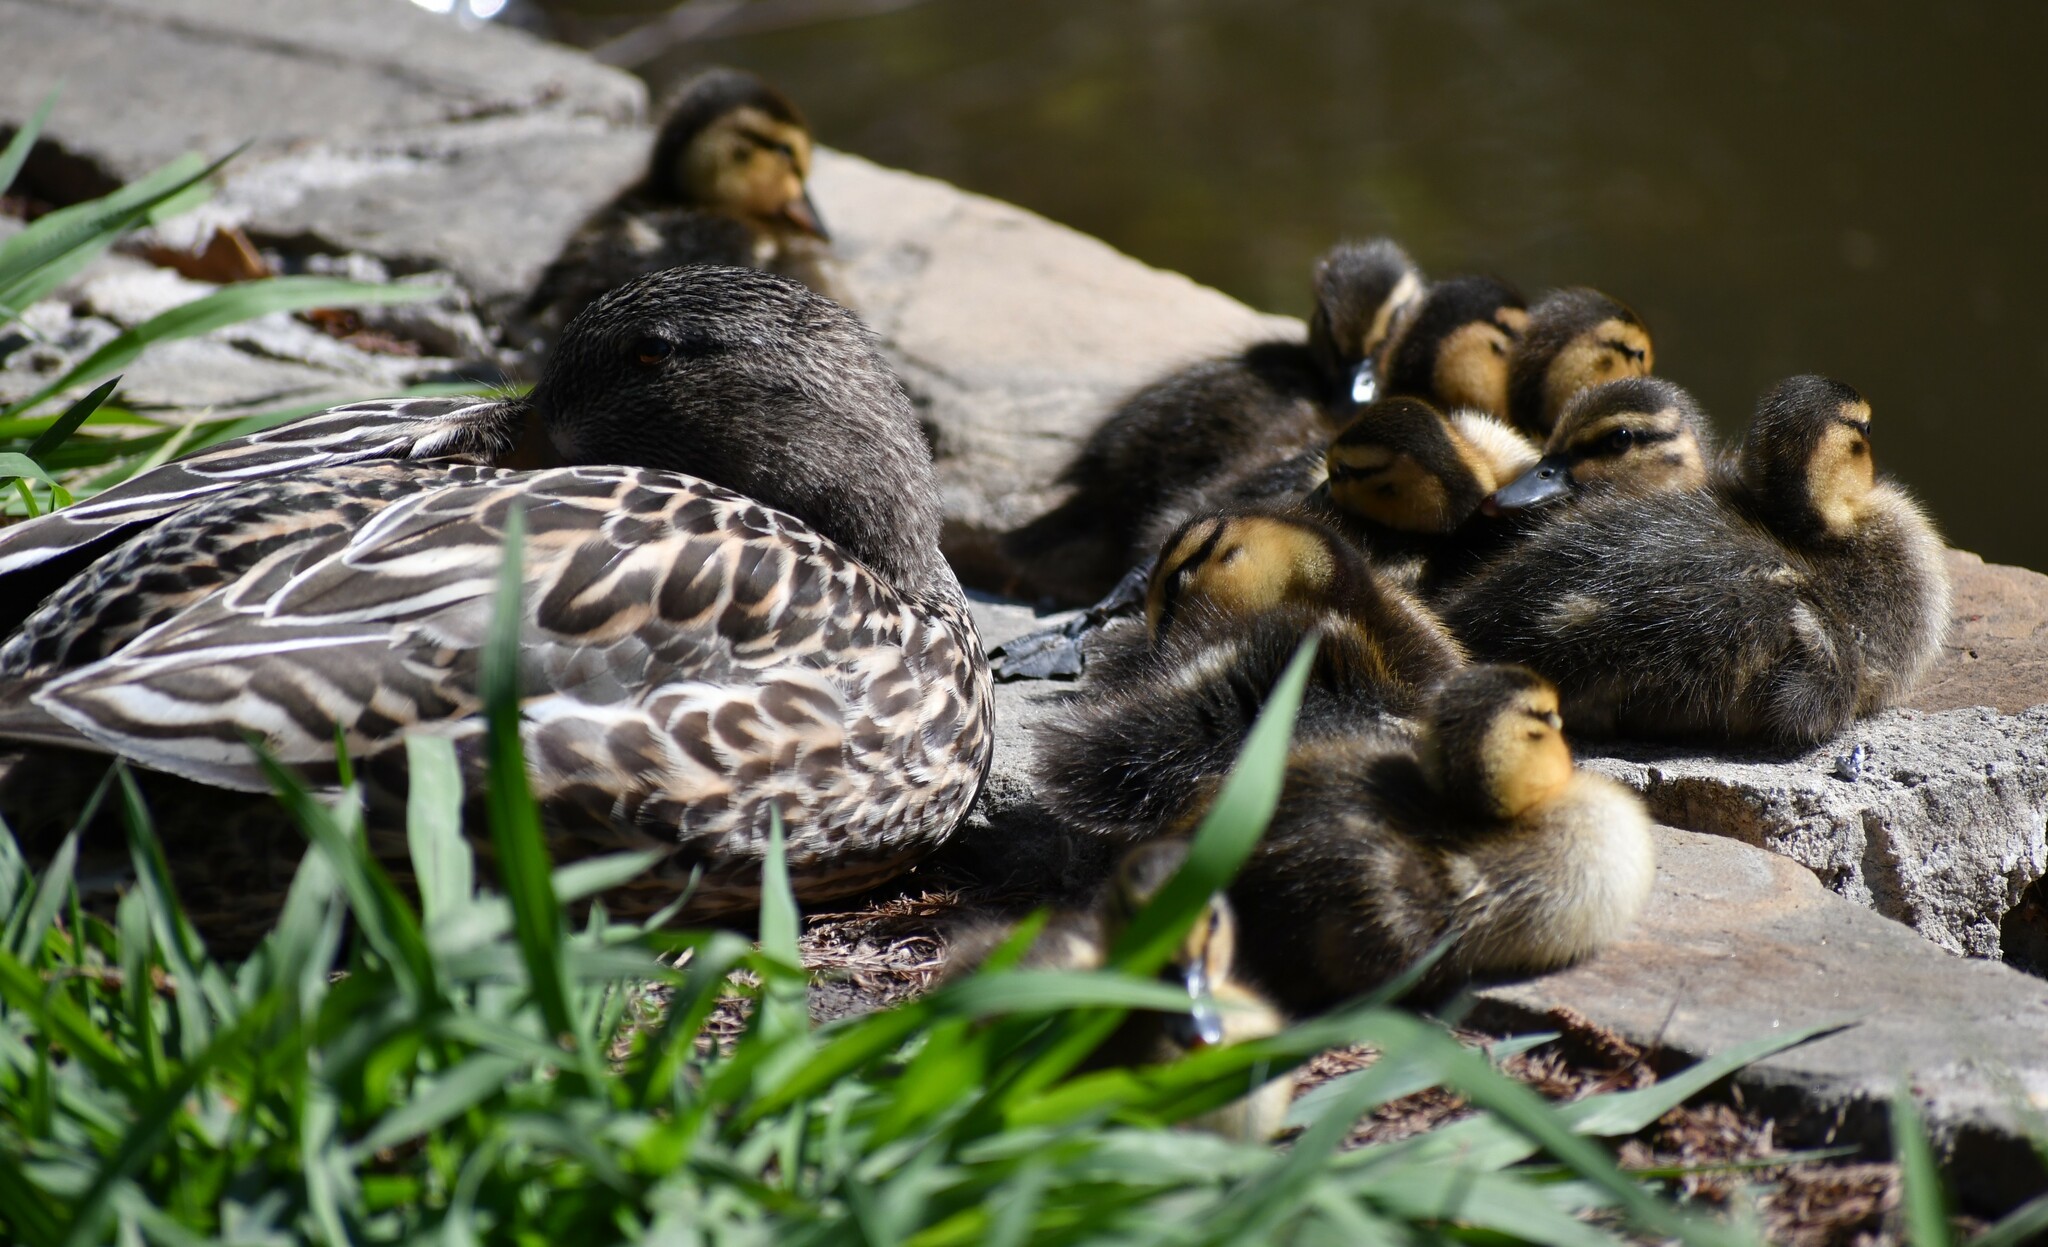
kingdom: Animalia
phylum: Chordata
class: Aves
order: Anseriformes
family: Anatidae
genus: Anas
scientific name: Anas platyrhynchos
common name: Mallard
